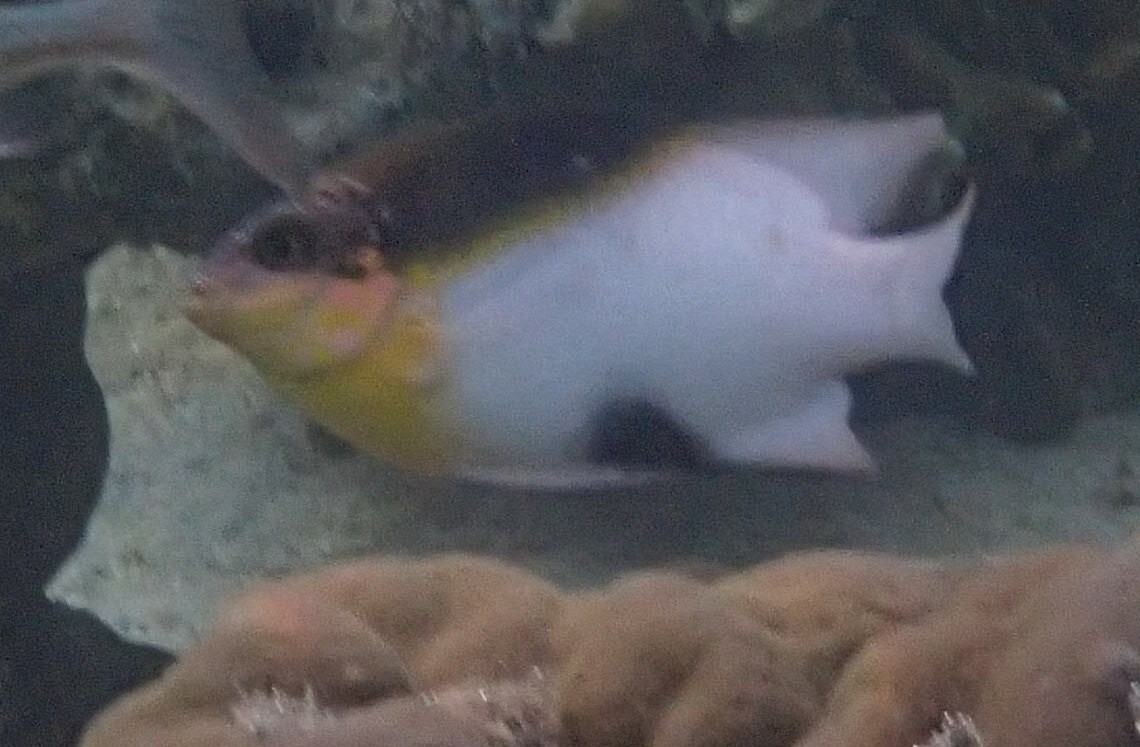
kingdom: Animalia
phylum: Chordata
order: Perciformes
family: Pomacentridae
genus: Dischistodus
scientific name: Dischistodus melanotus
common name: Black-vent damsel
